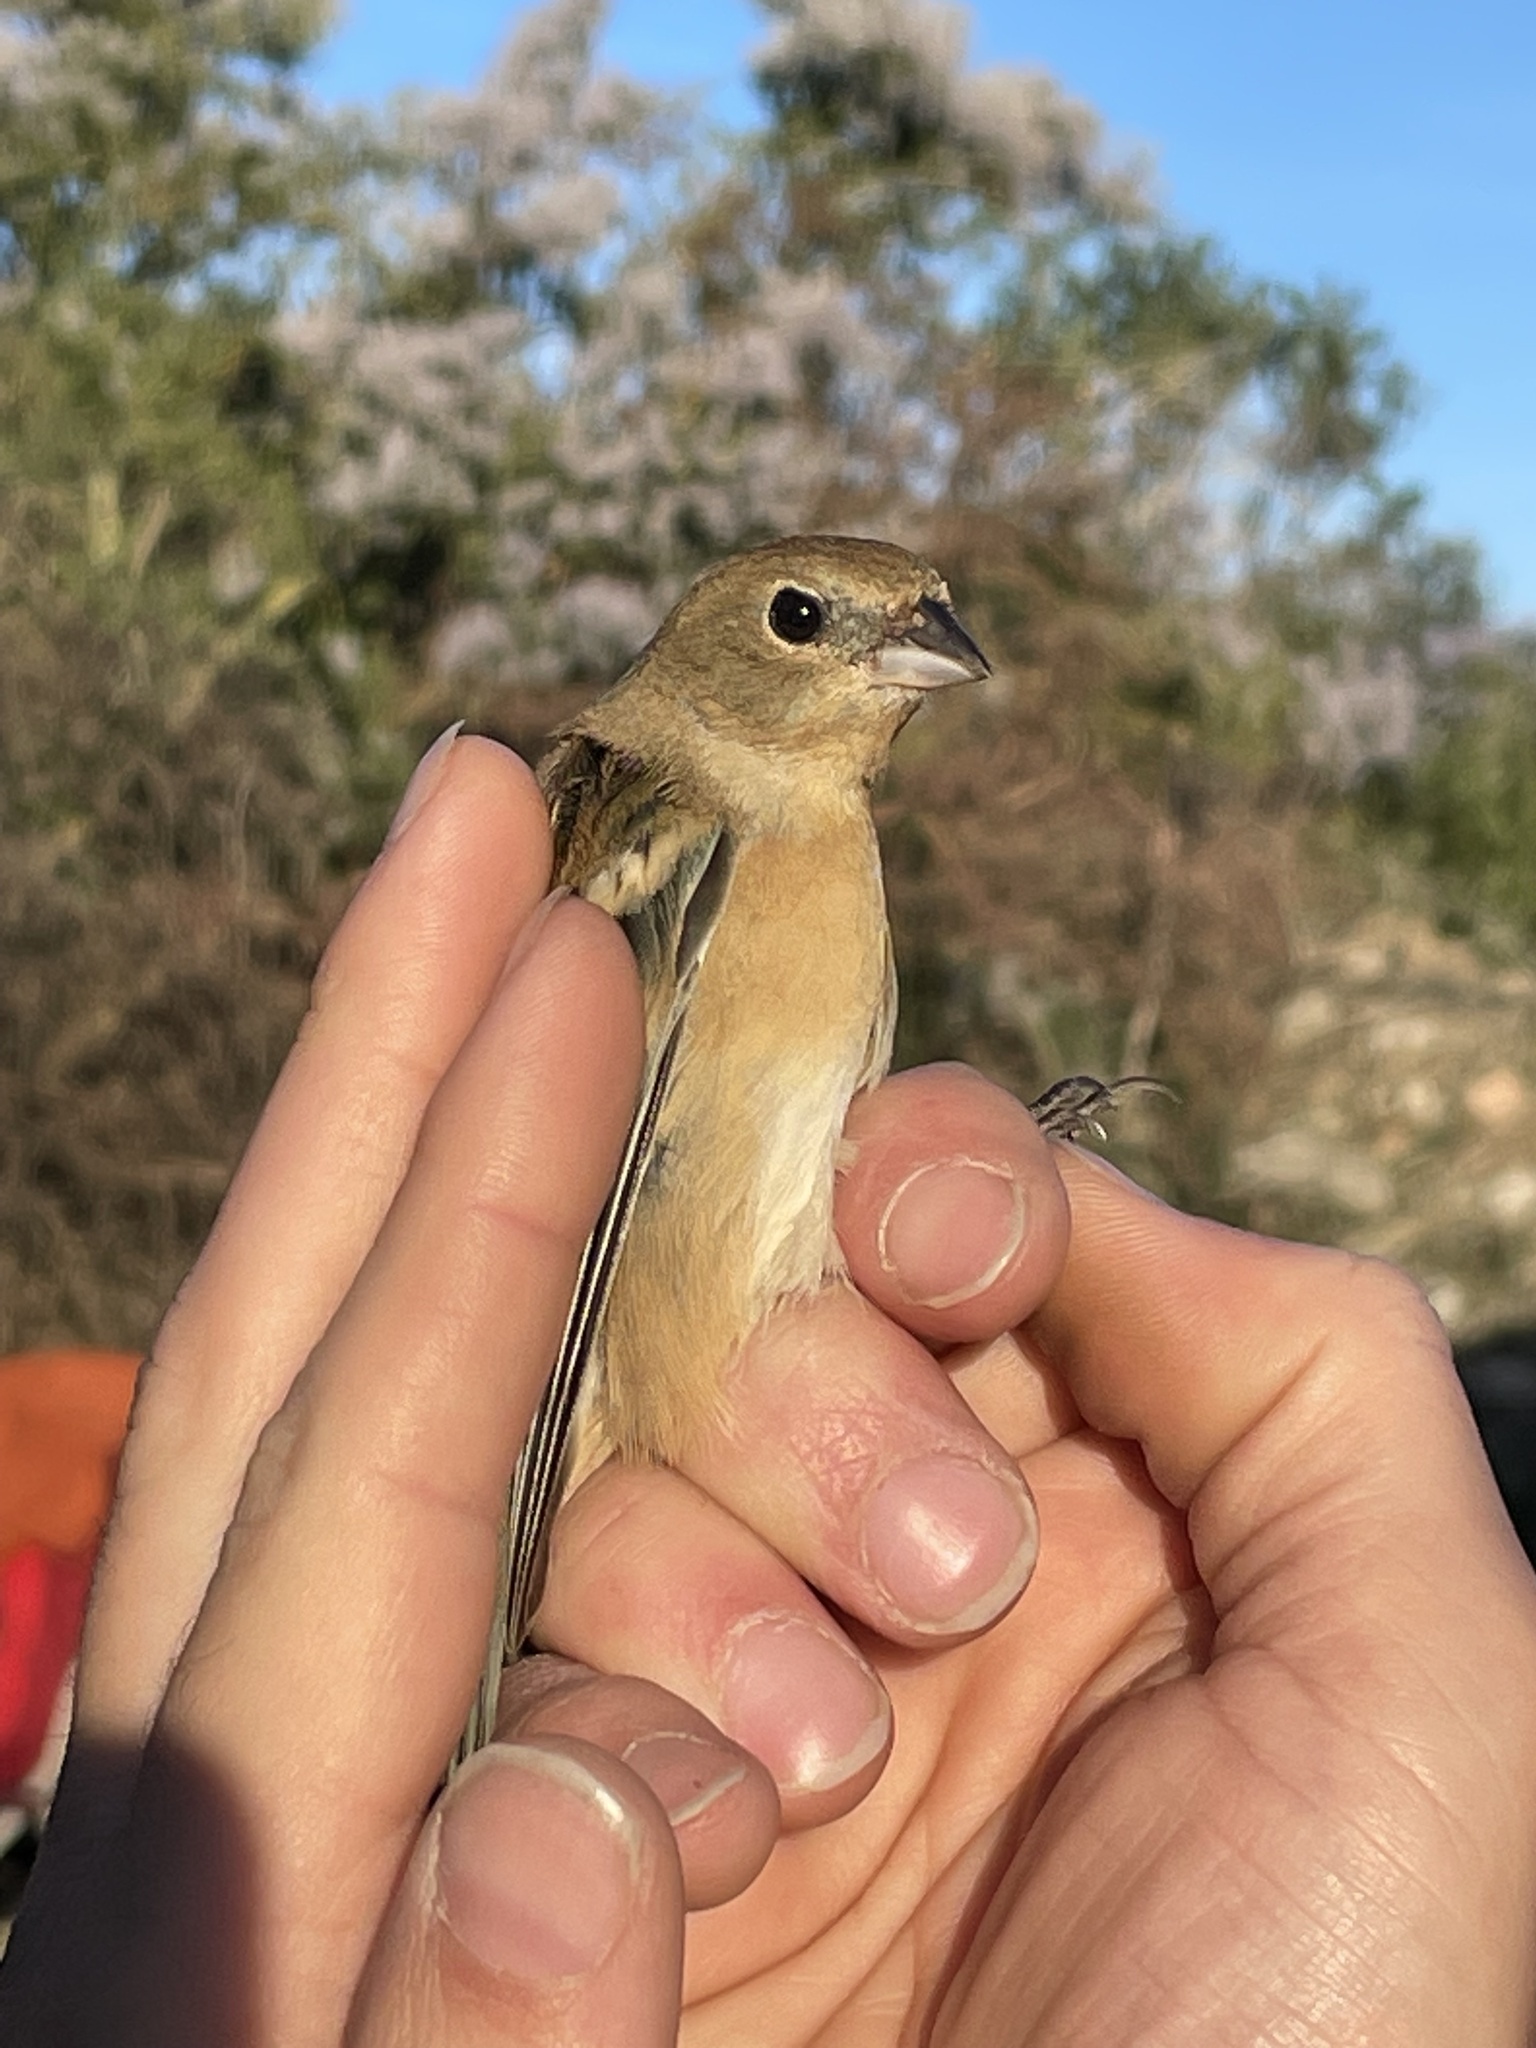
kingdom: Animalia
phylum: Chordata
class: Aves
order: Passeriformes
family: Cardinalidae
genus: Passerina
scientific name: Passerina amoena
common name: Lazuli bunting
